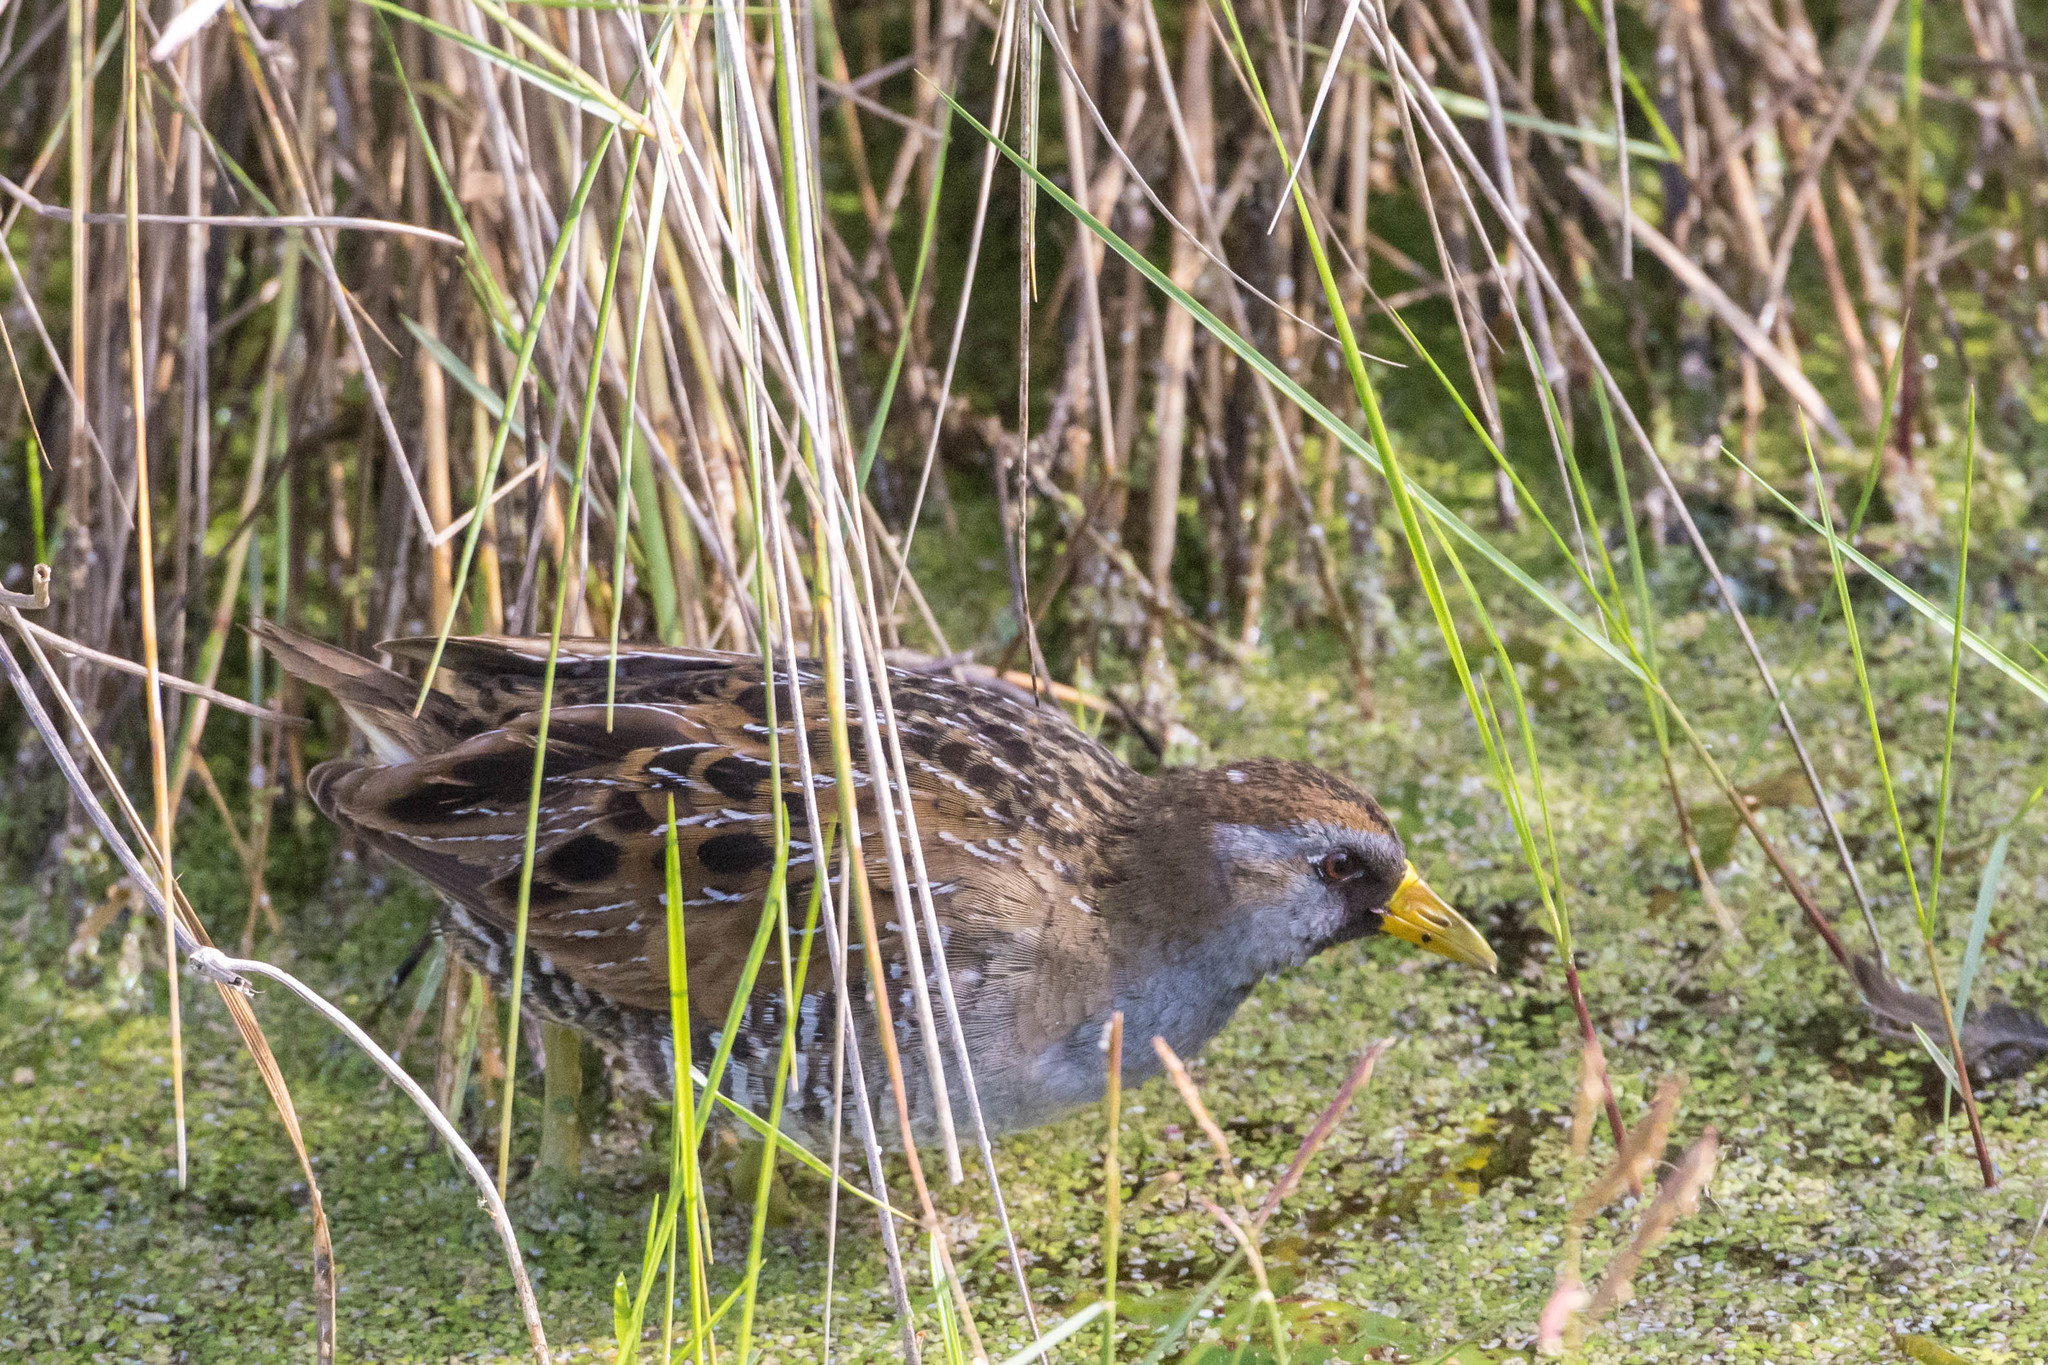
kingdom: Animalia
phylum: Chordata
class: Aves
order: Gruiformes
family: Rallidae
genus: Porzana
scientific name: Porzana carolina
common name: Sora
